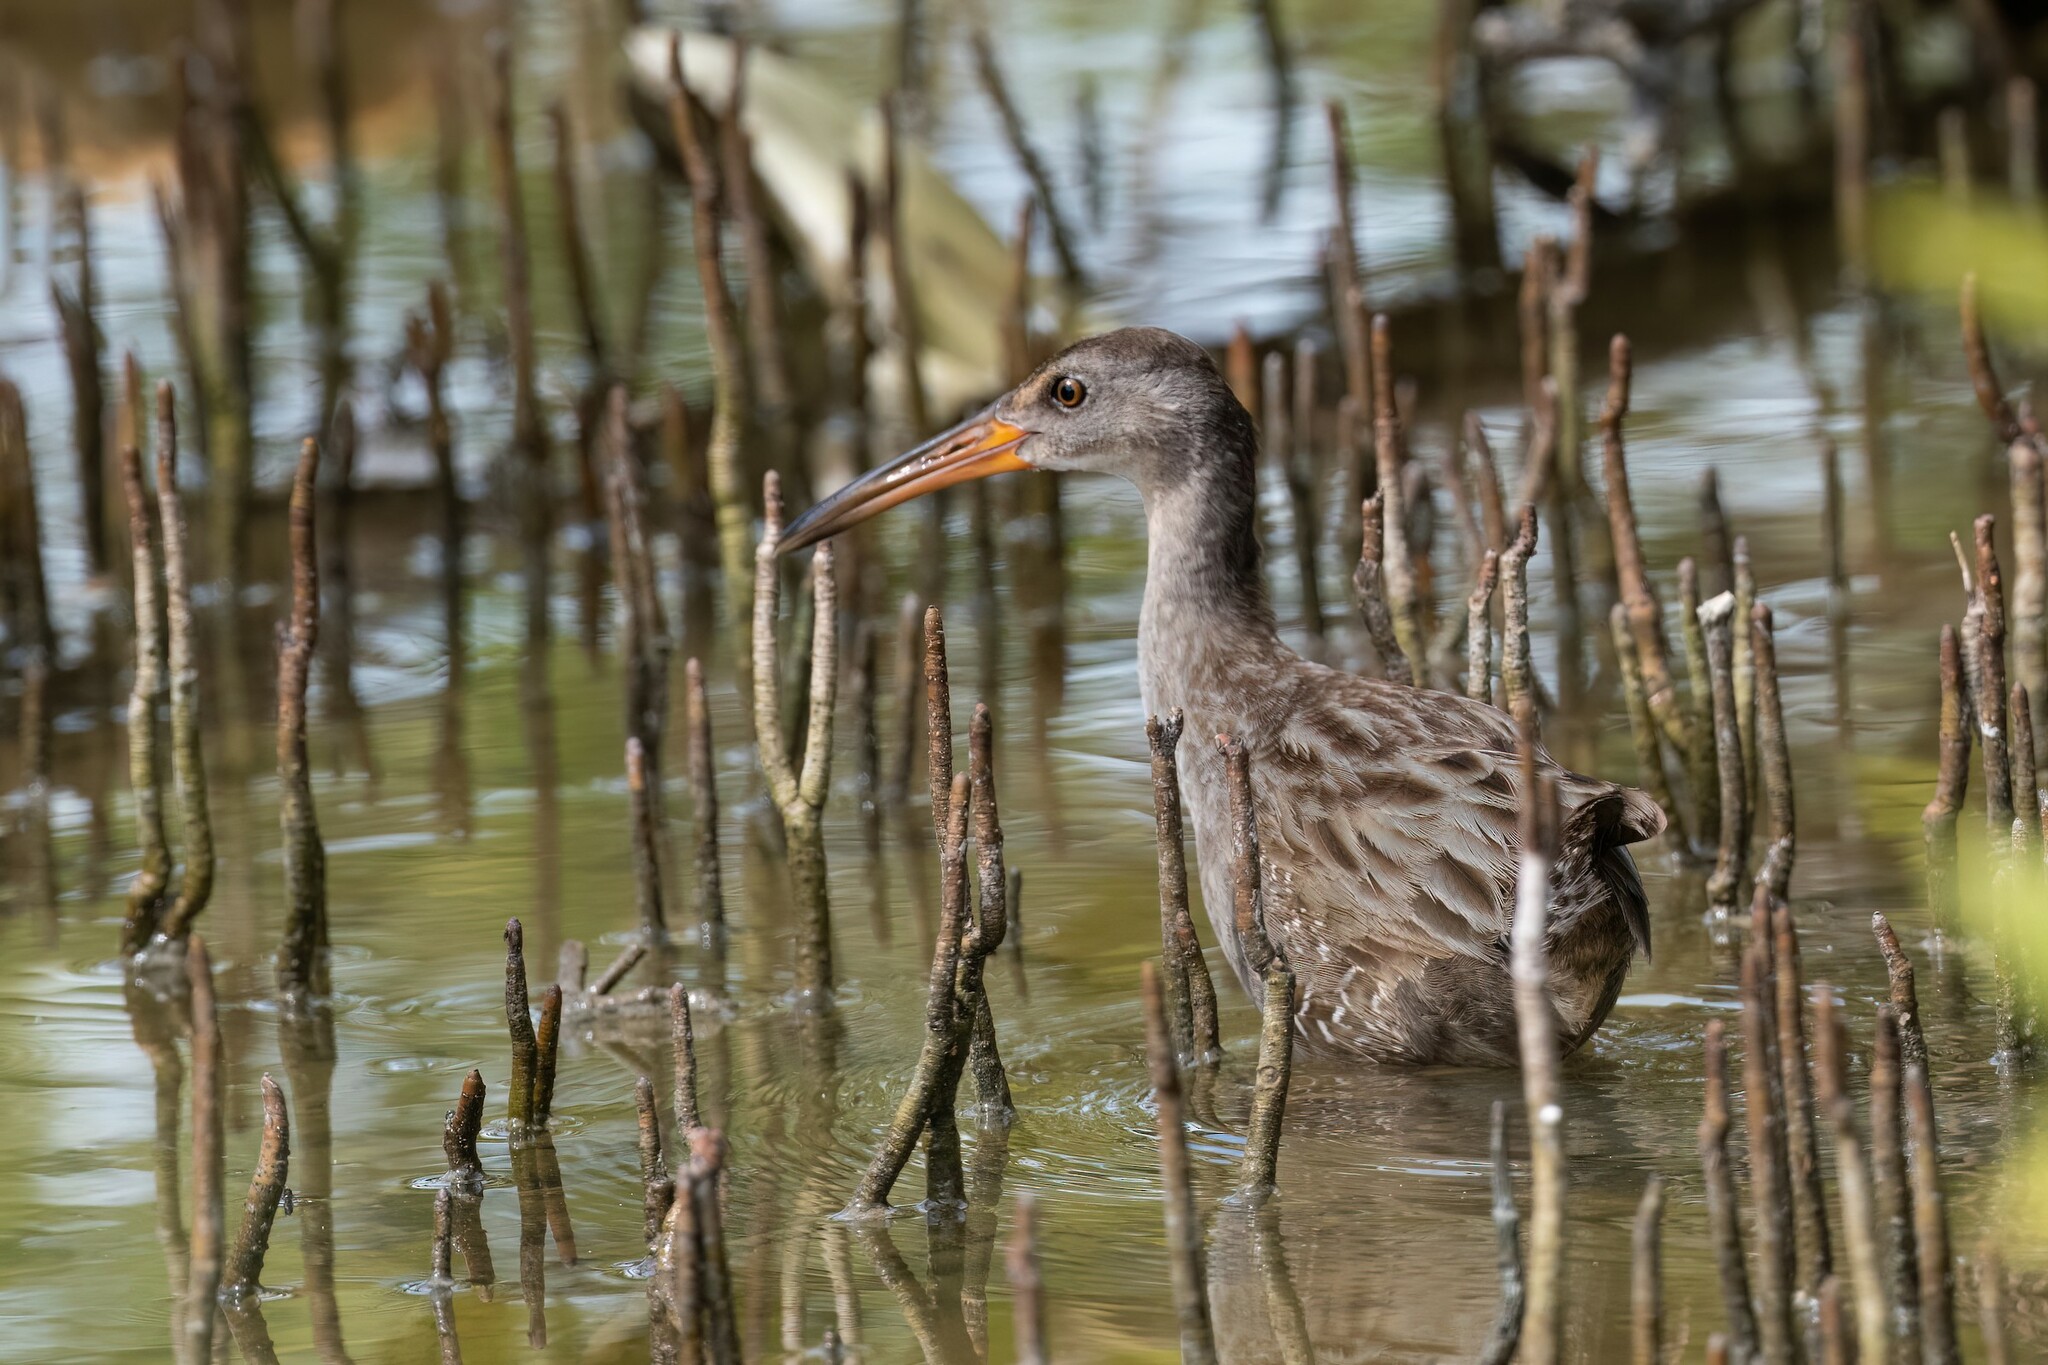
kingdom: Animalia
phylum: Chordata
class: Aves
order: Gruiformes
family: Rallidae
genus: Rallus
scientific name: Rallus crepitans
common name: Clapper rail
